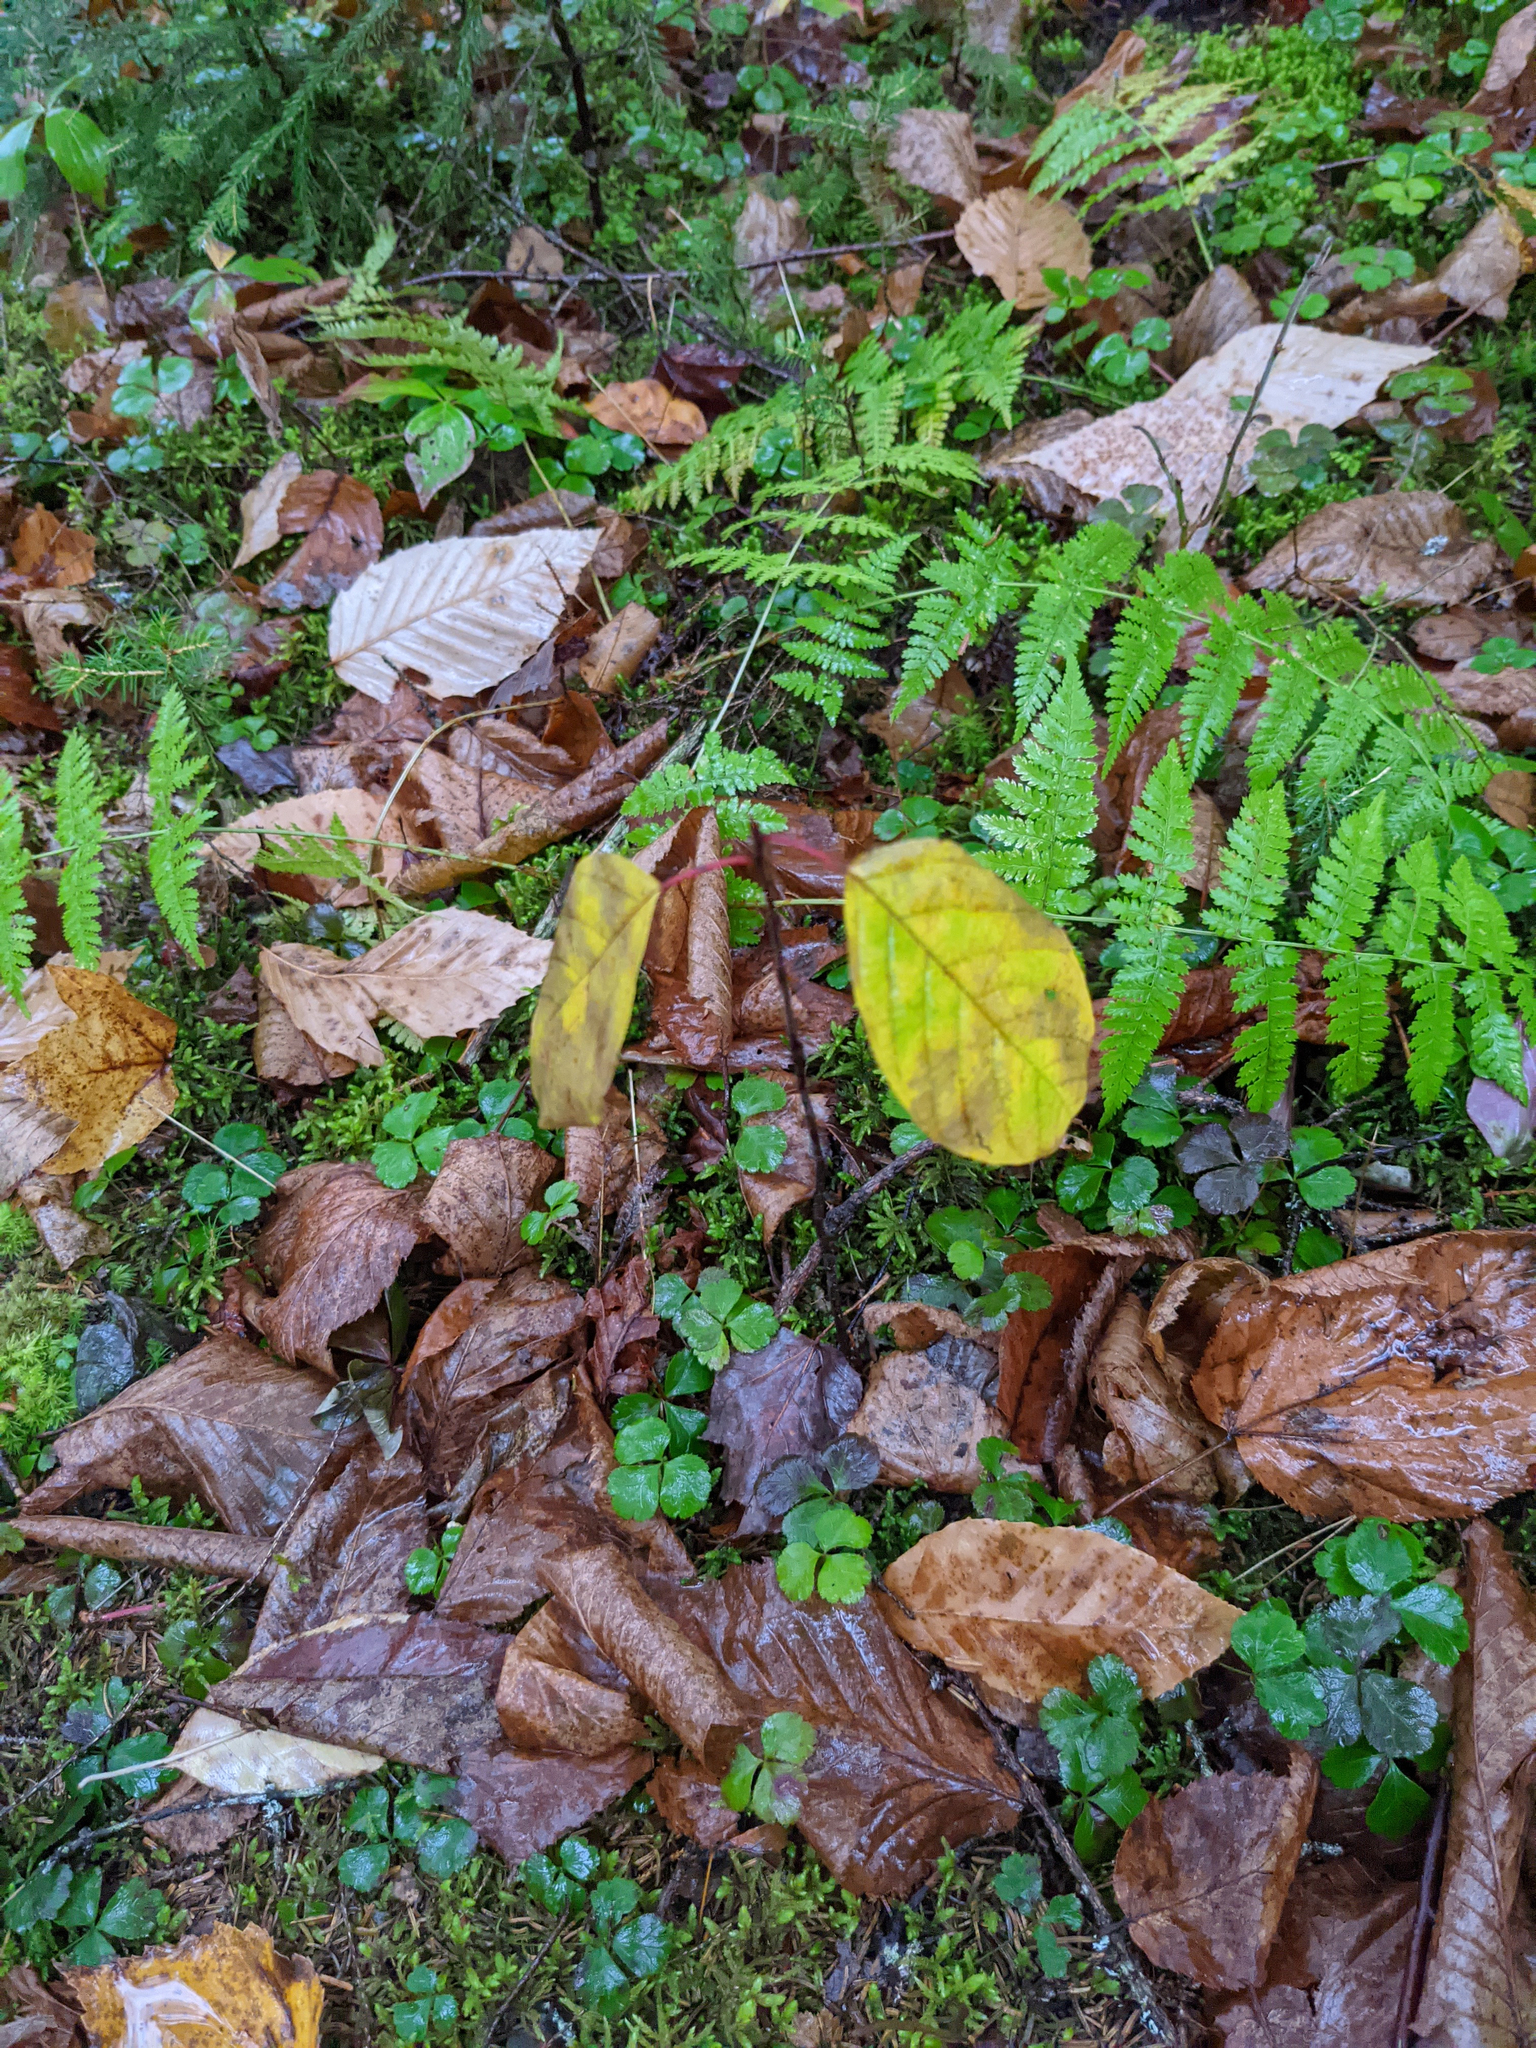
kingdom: Plantae
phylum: Tracheophyta
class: Magnoliopsida
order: Rosales
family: Rhamnaceae
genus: Frangula
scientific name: Frangula alnus
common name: Alder buckthorn
